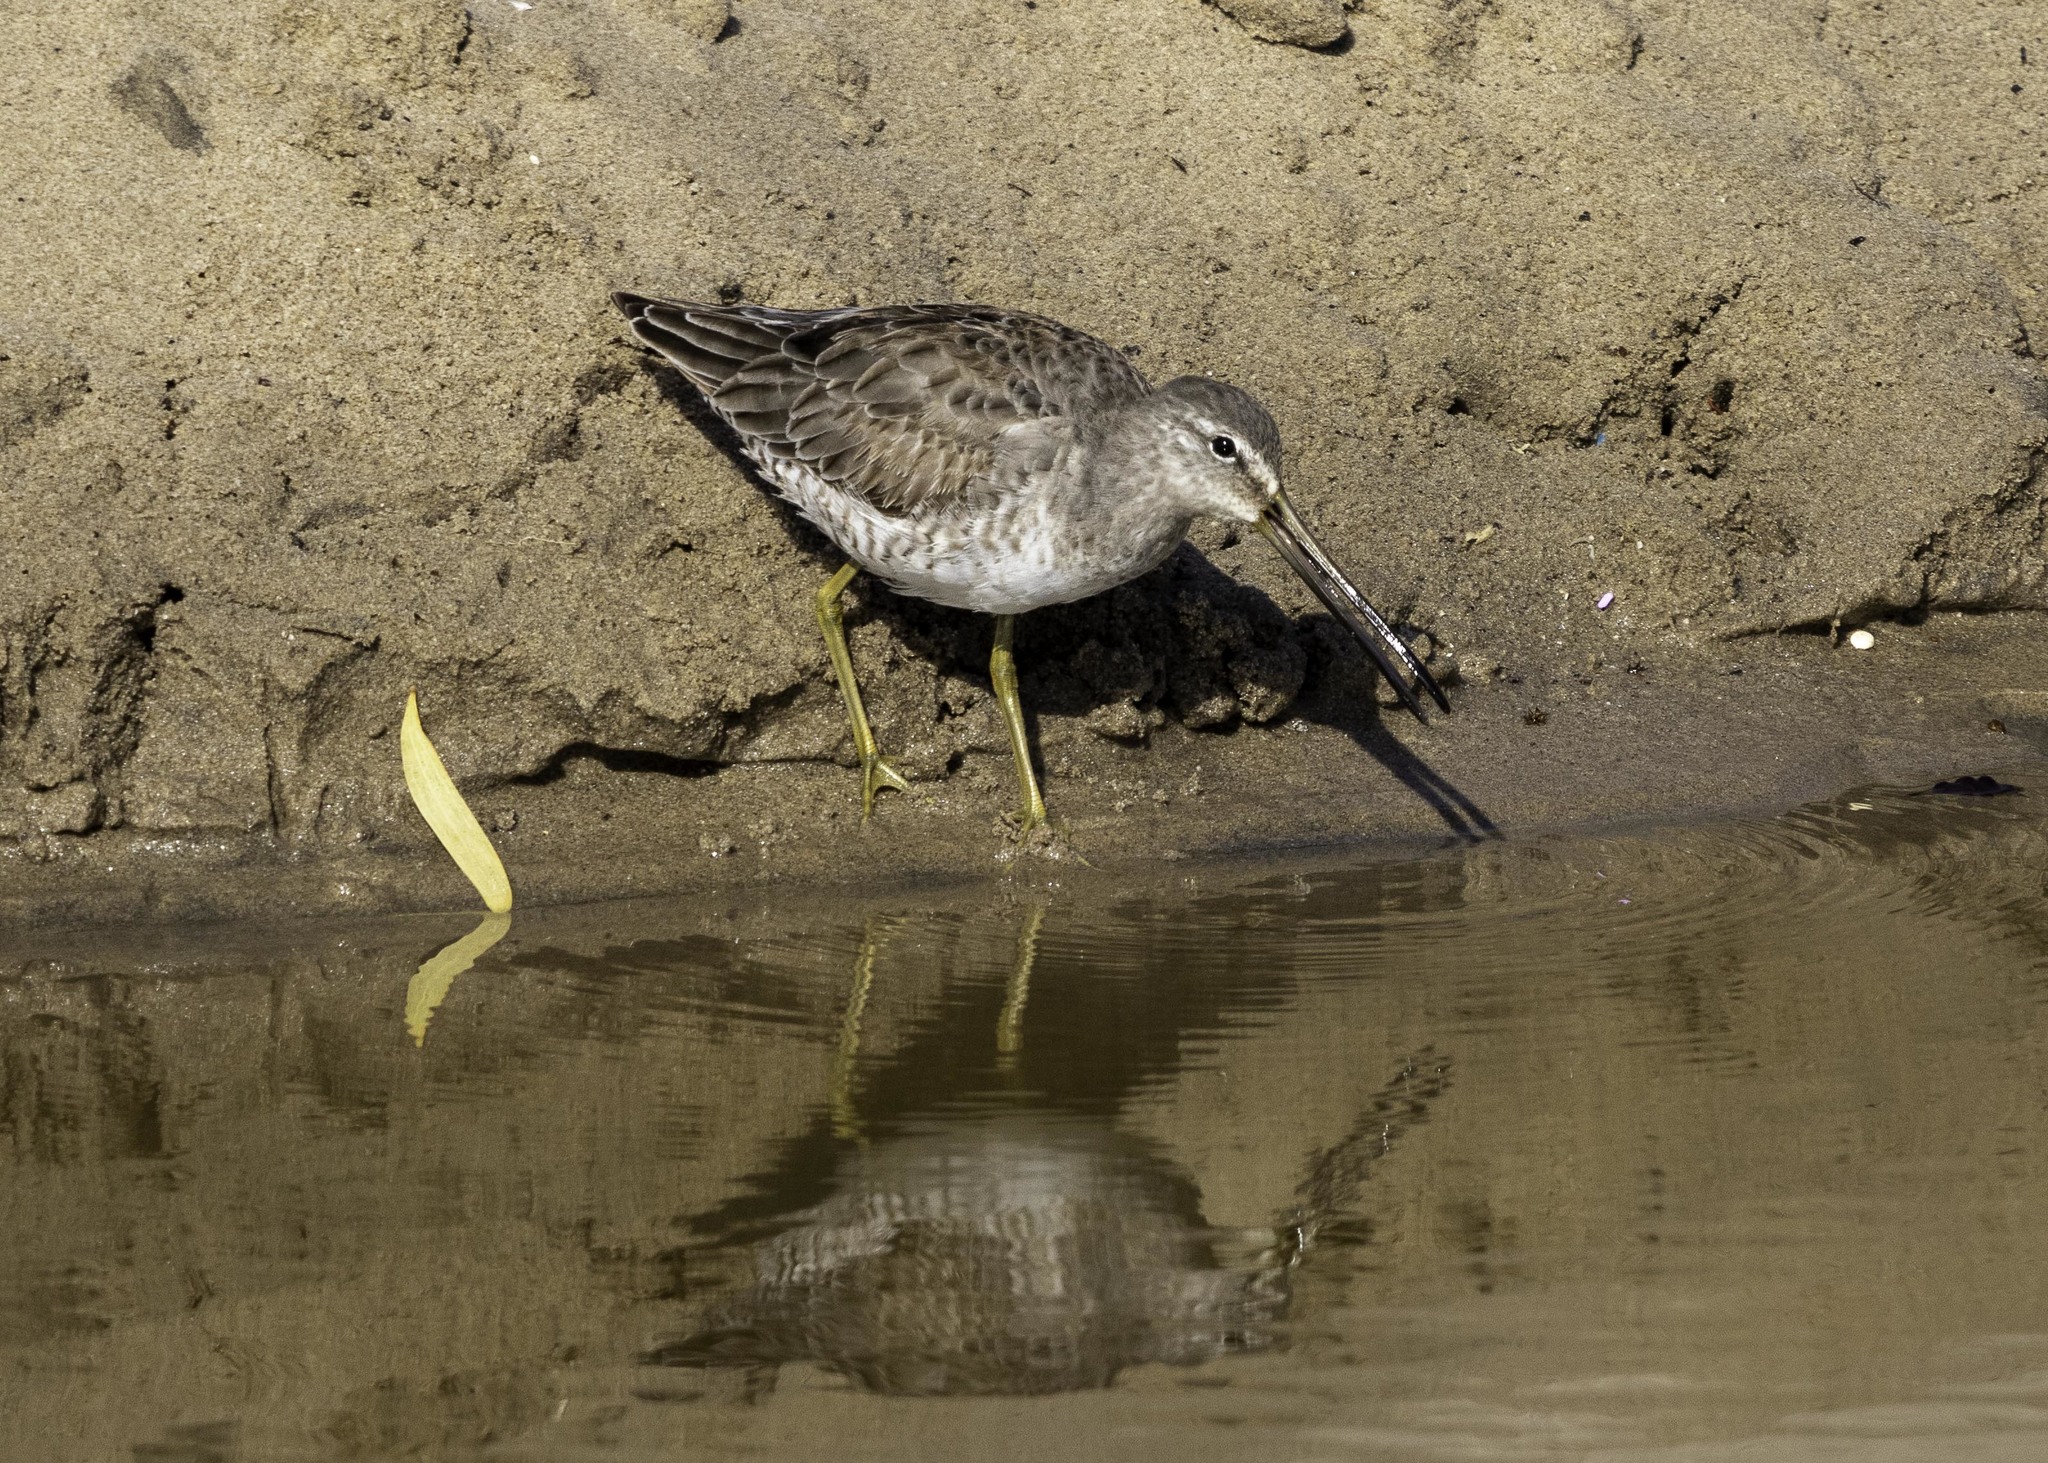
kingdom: Animalia
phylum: Chordata
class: Aves
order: Charadriiformes
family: Scolopacidae
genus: Limnodromus
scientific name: Limnodromus scolopaceus
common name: Long-billed dowitcher
